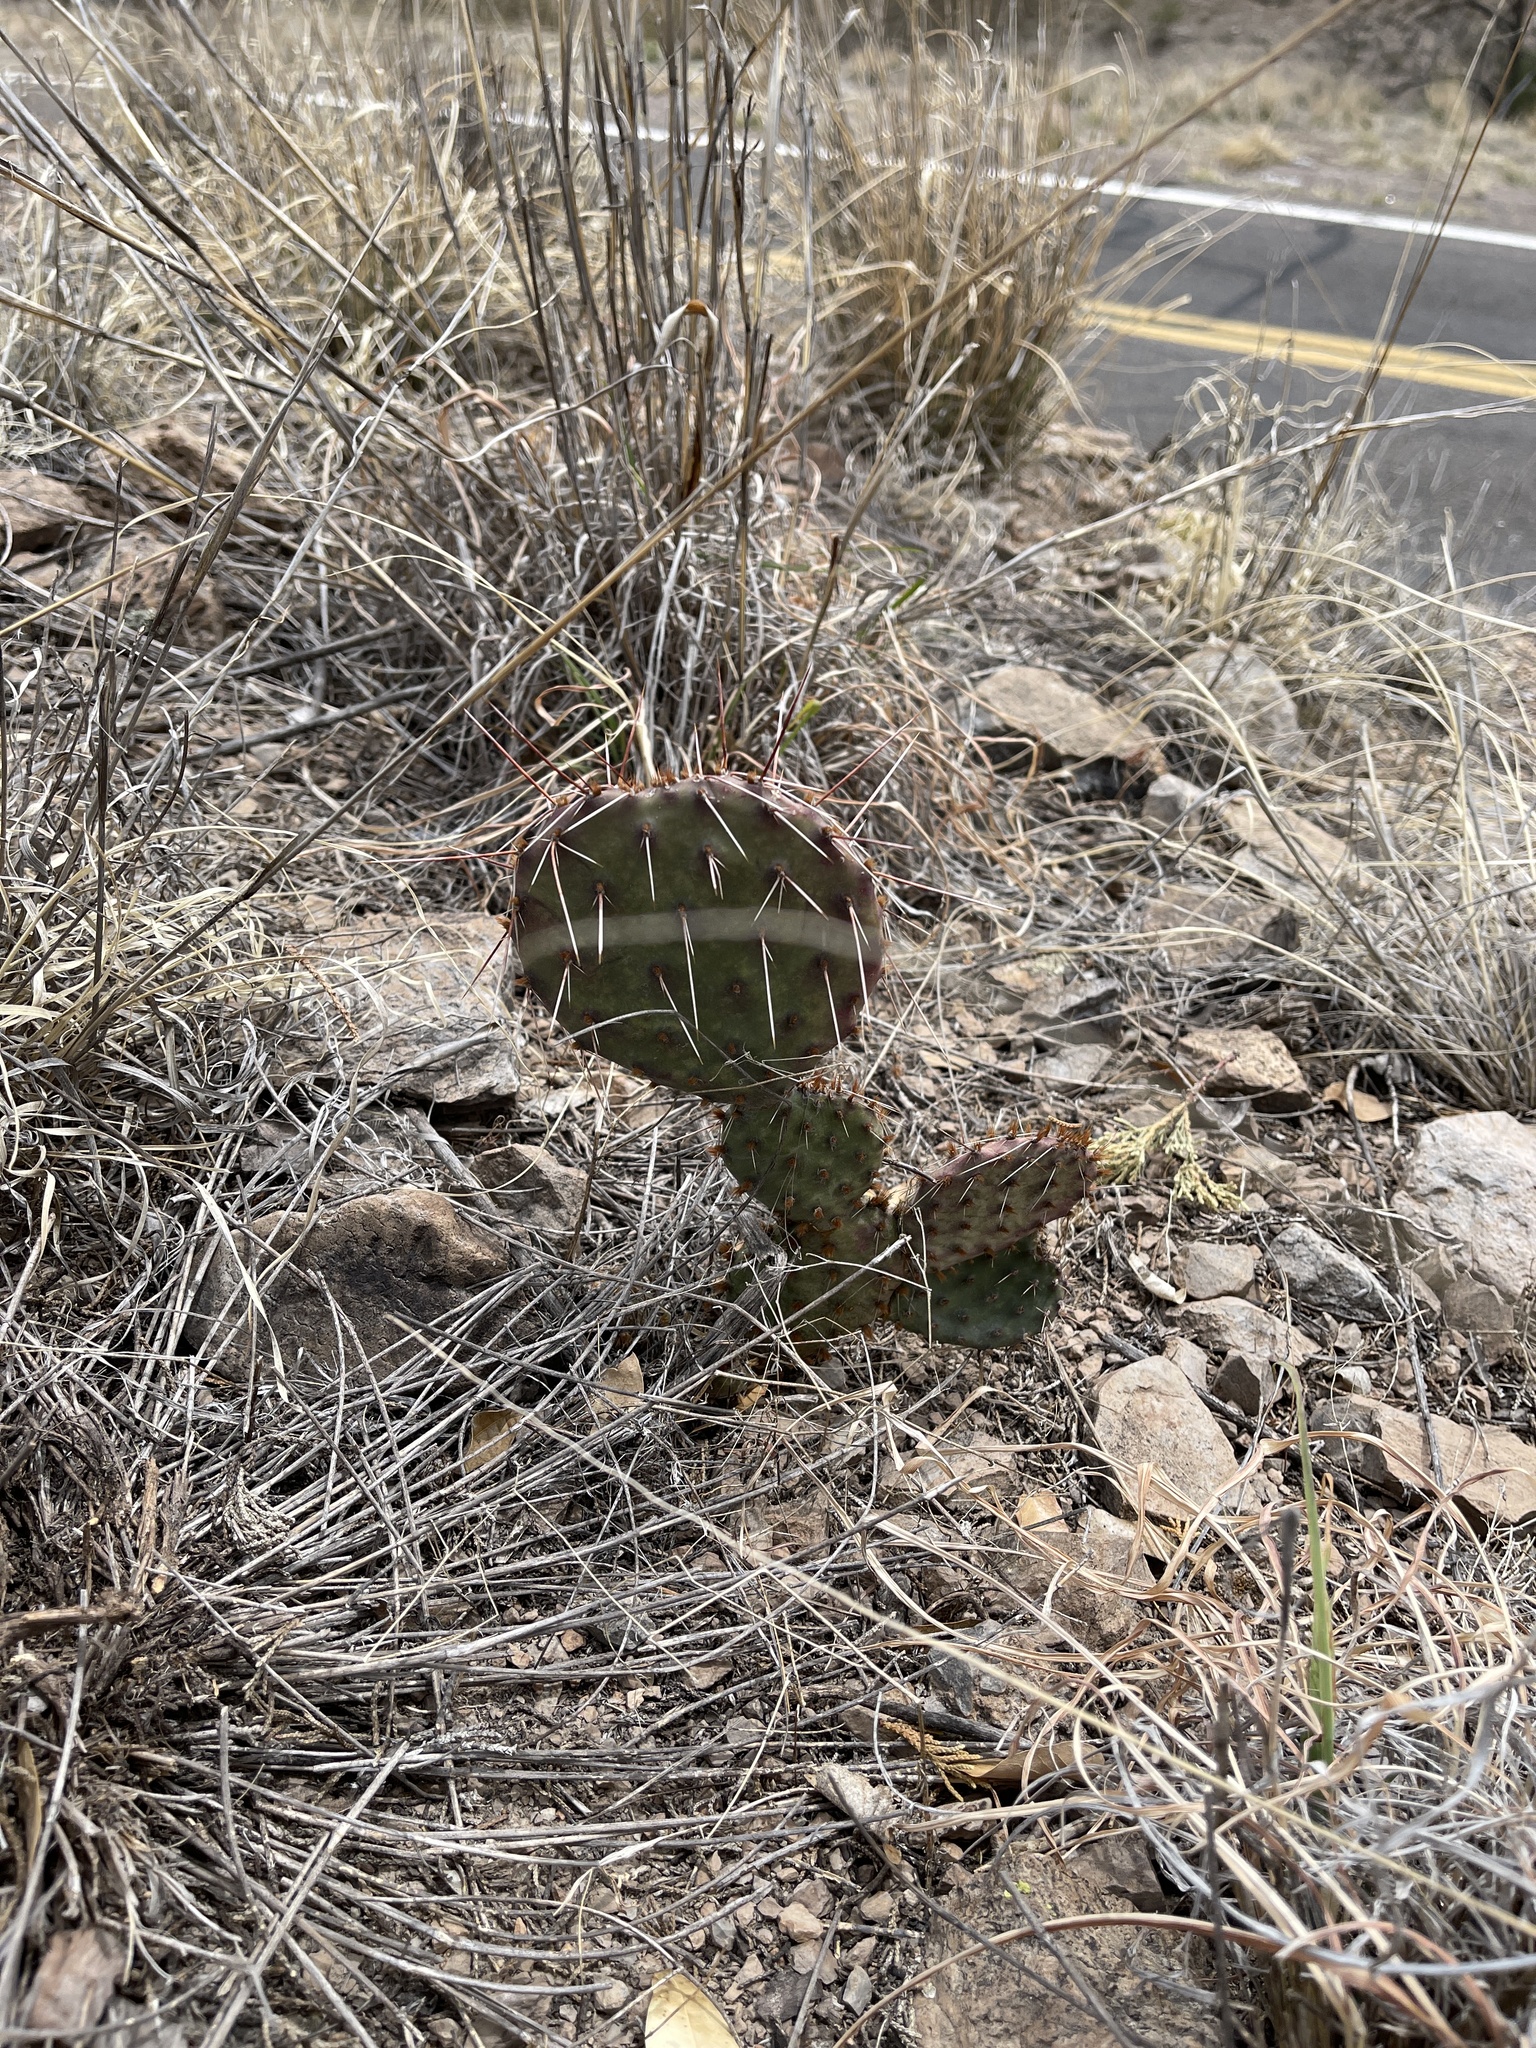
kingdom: Plantae
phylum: Tracheophyta
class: Magnoliopsida
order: Caryophyllales
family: Cactaceae
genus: Opuntia
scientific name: Opuntia phaeacantha
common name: New mexico prickly-pear
